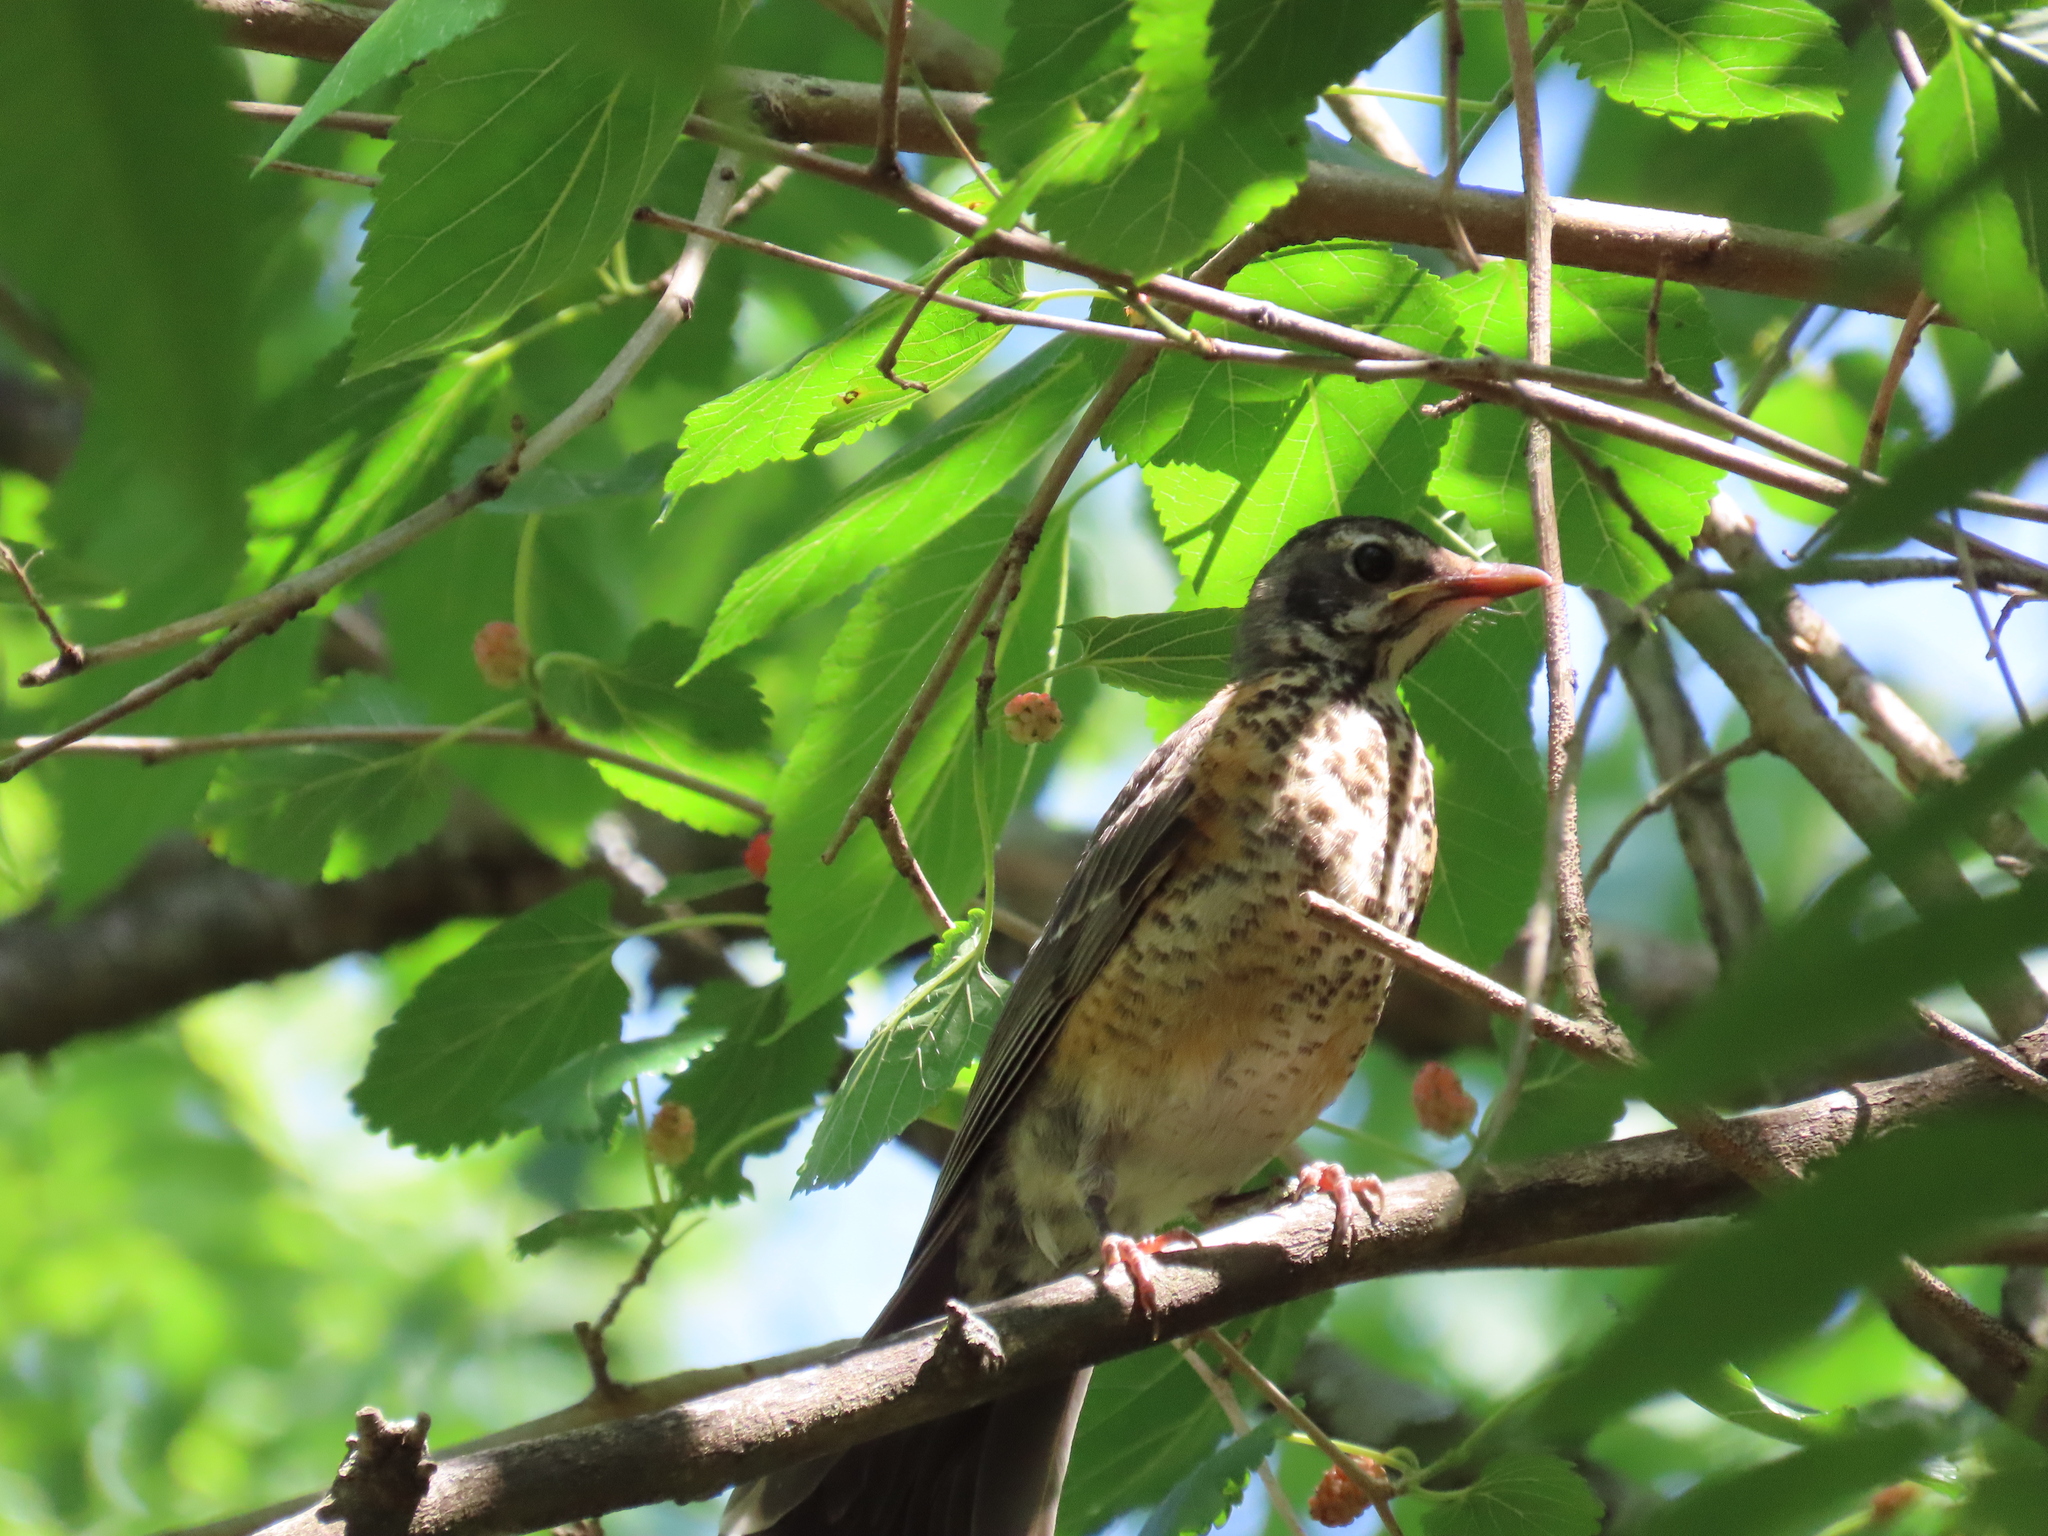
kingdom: Animalia
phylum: Chordata
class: Aves
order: Passeriformes
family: Turdidae
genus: Turdus
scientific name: Turdus migratorius
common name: American robin
